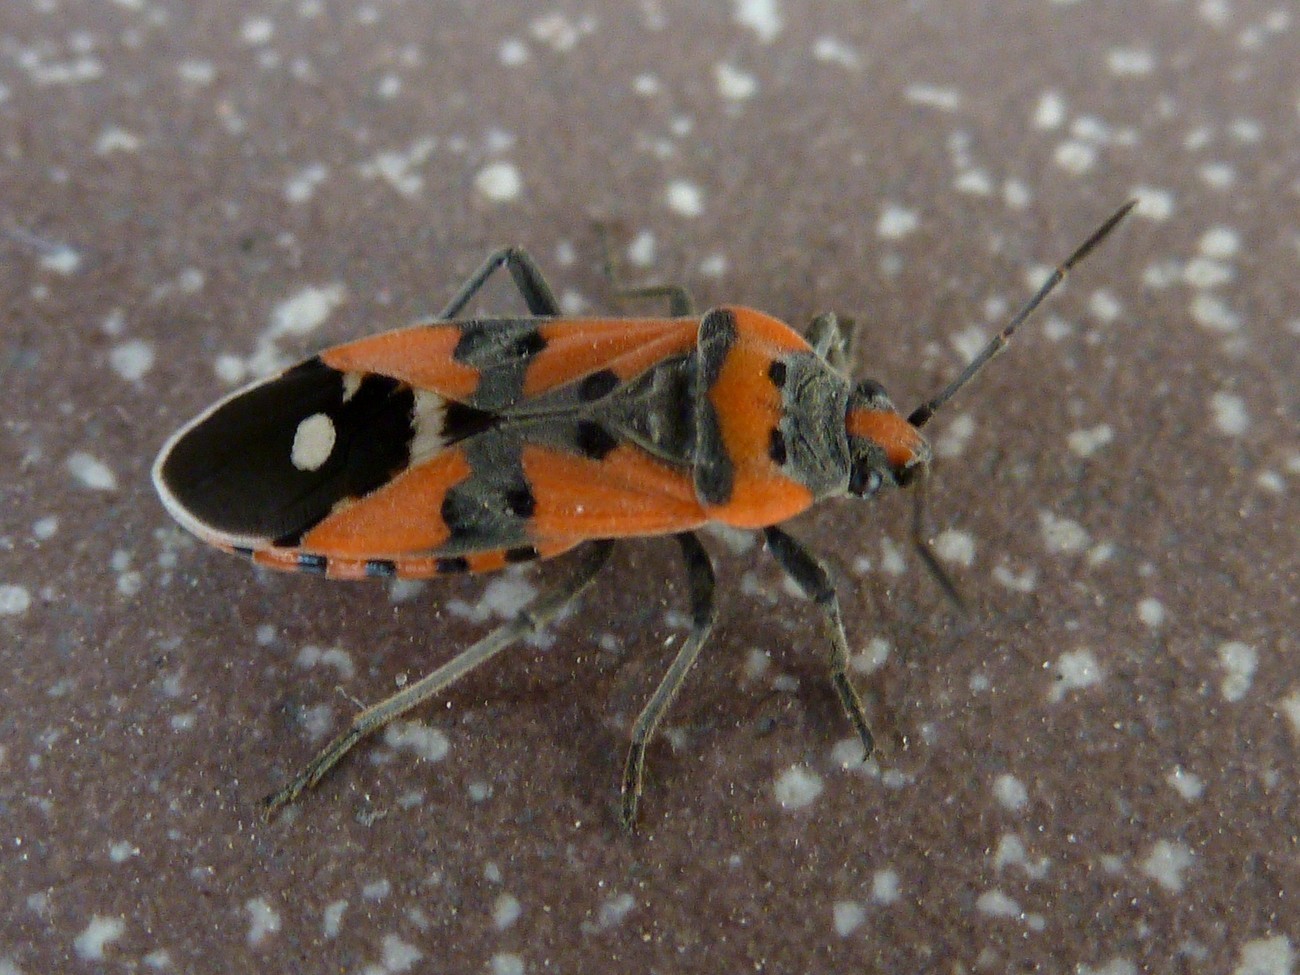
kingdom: Animalia
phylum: Arthropoda
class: Insecta
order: Hemiptera
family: Lygaeidae
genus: Lygaeus
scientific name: Lygaeus equestris
